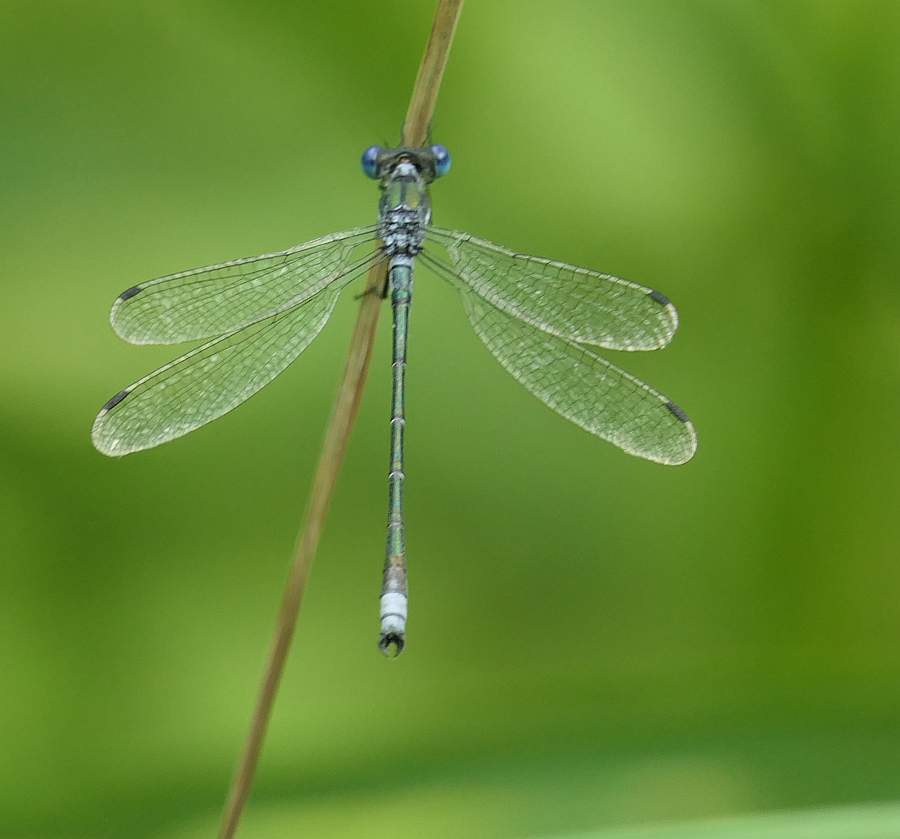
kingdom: Animalia
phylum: Arthropoda
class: Insecta
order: Odonata
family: Lestidae
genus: Lestes
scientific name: Lestes dryas
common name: Scarce emerald damselfly
